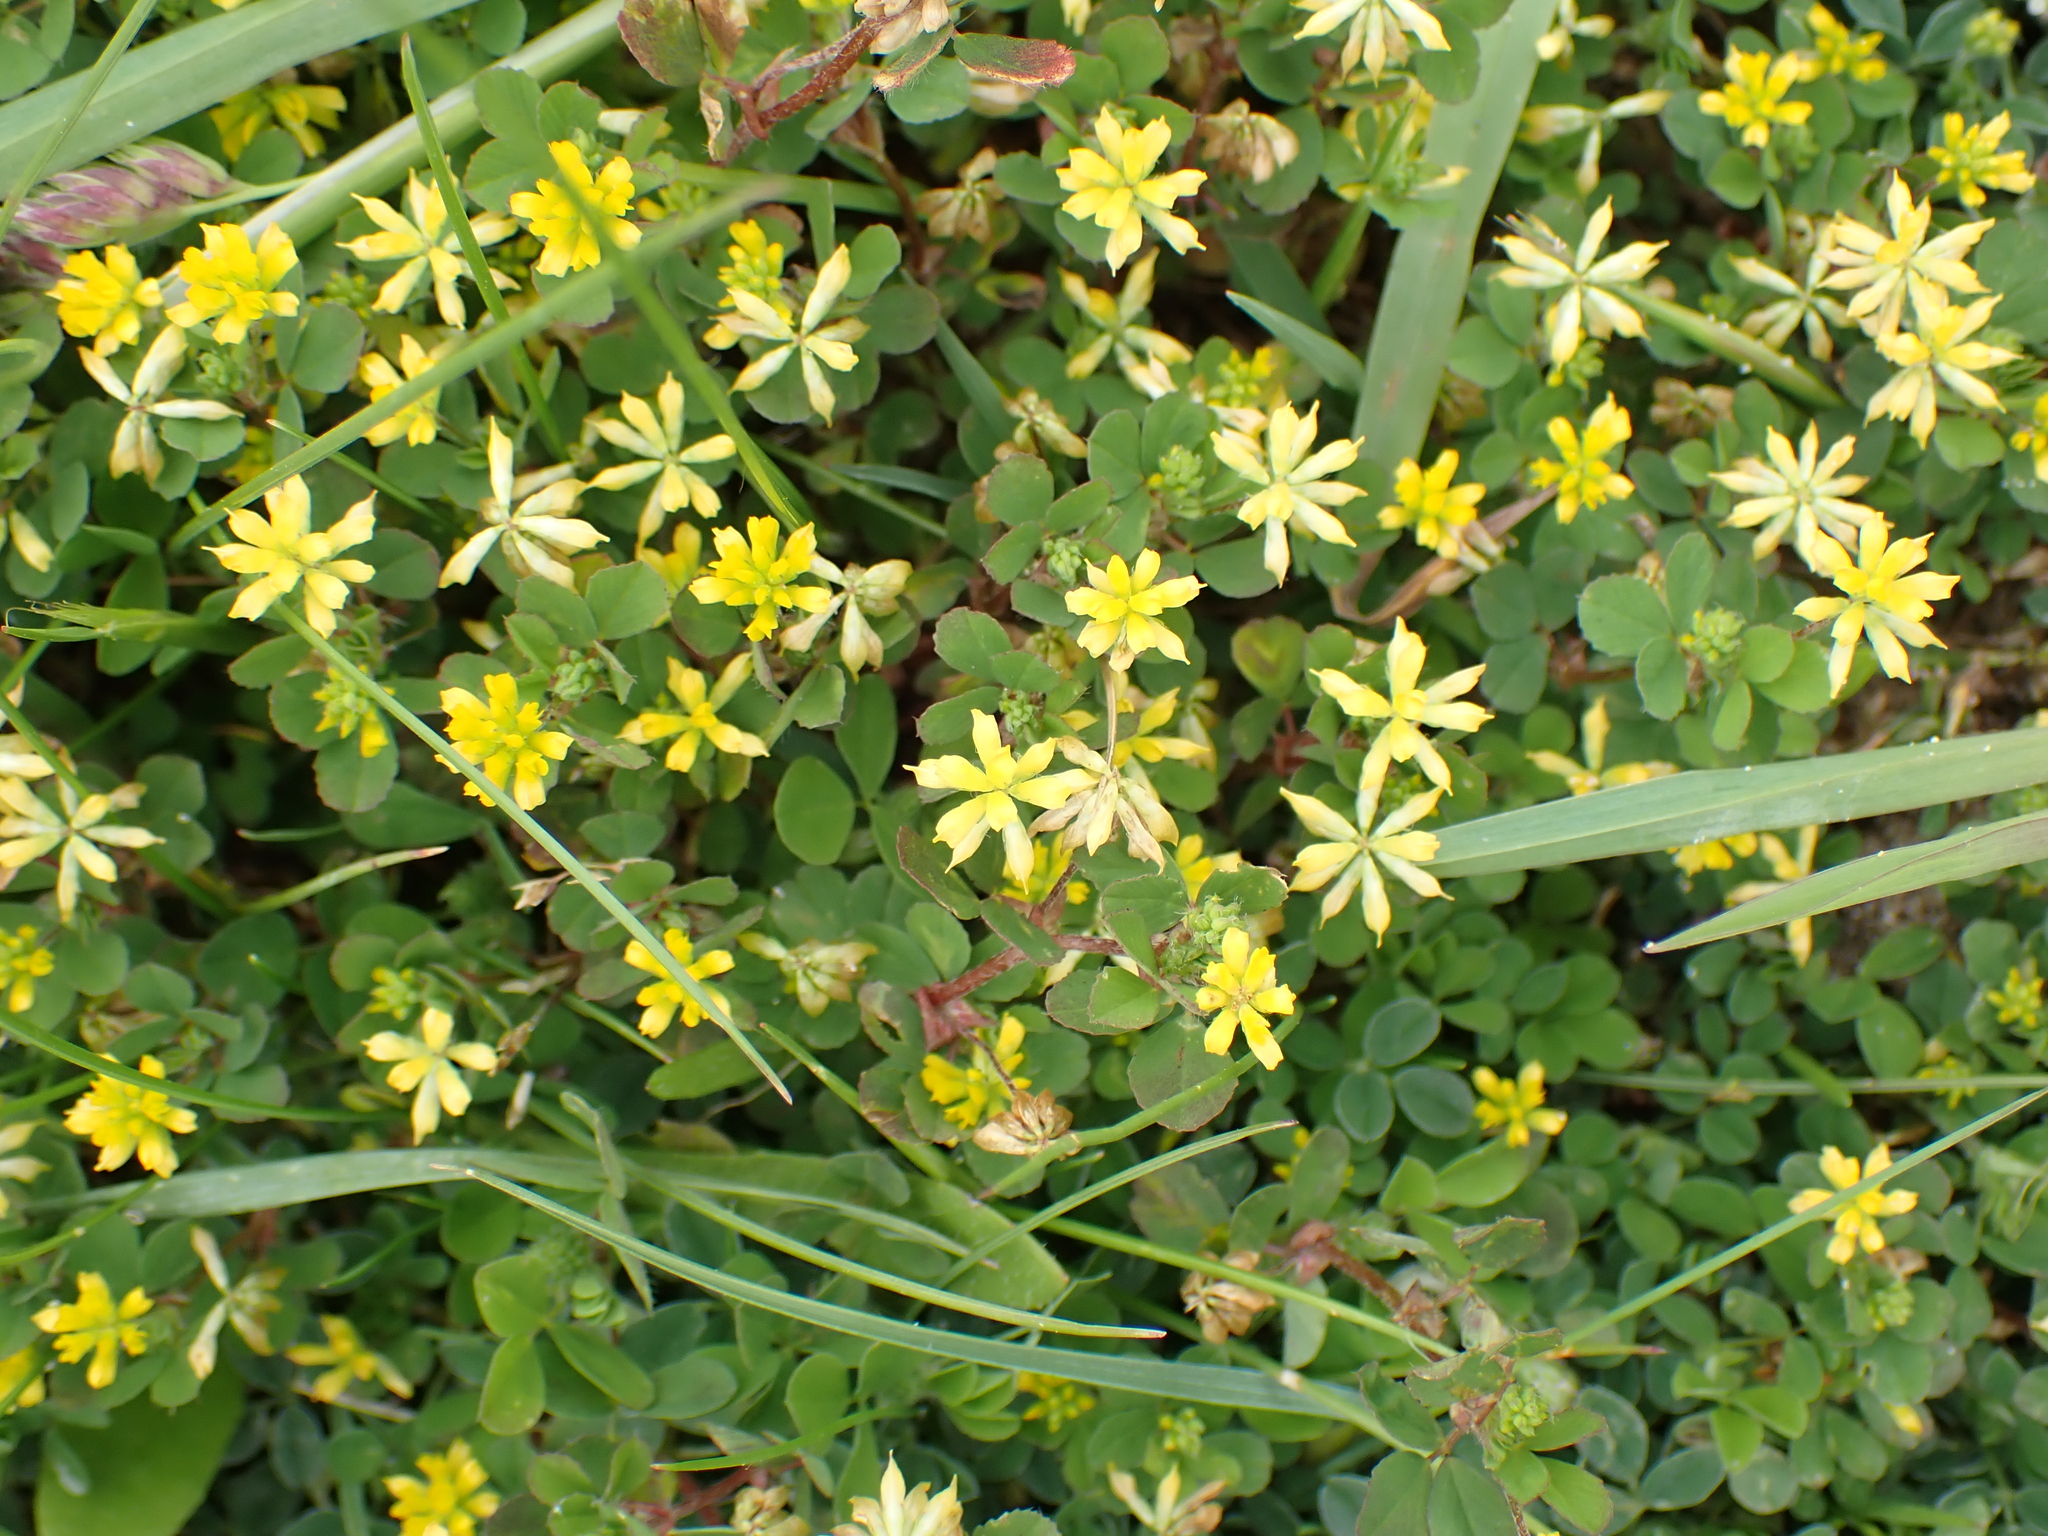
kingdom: Plantae
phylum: Tracheophyta
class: Magnoliopsida
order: Fabales
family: Fabaceae
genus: Trifolium
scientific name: Trifolium dubium
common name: Suckling clover
